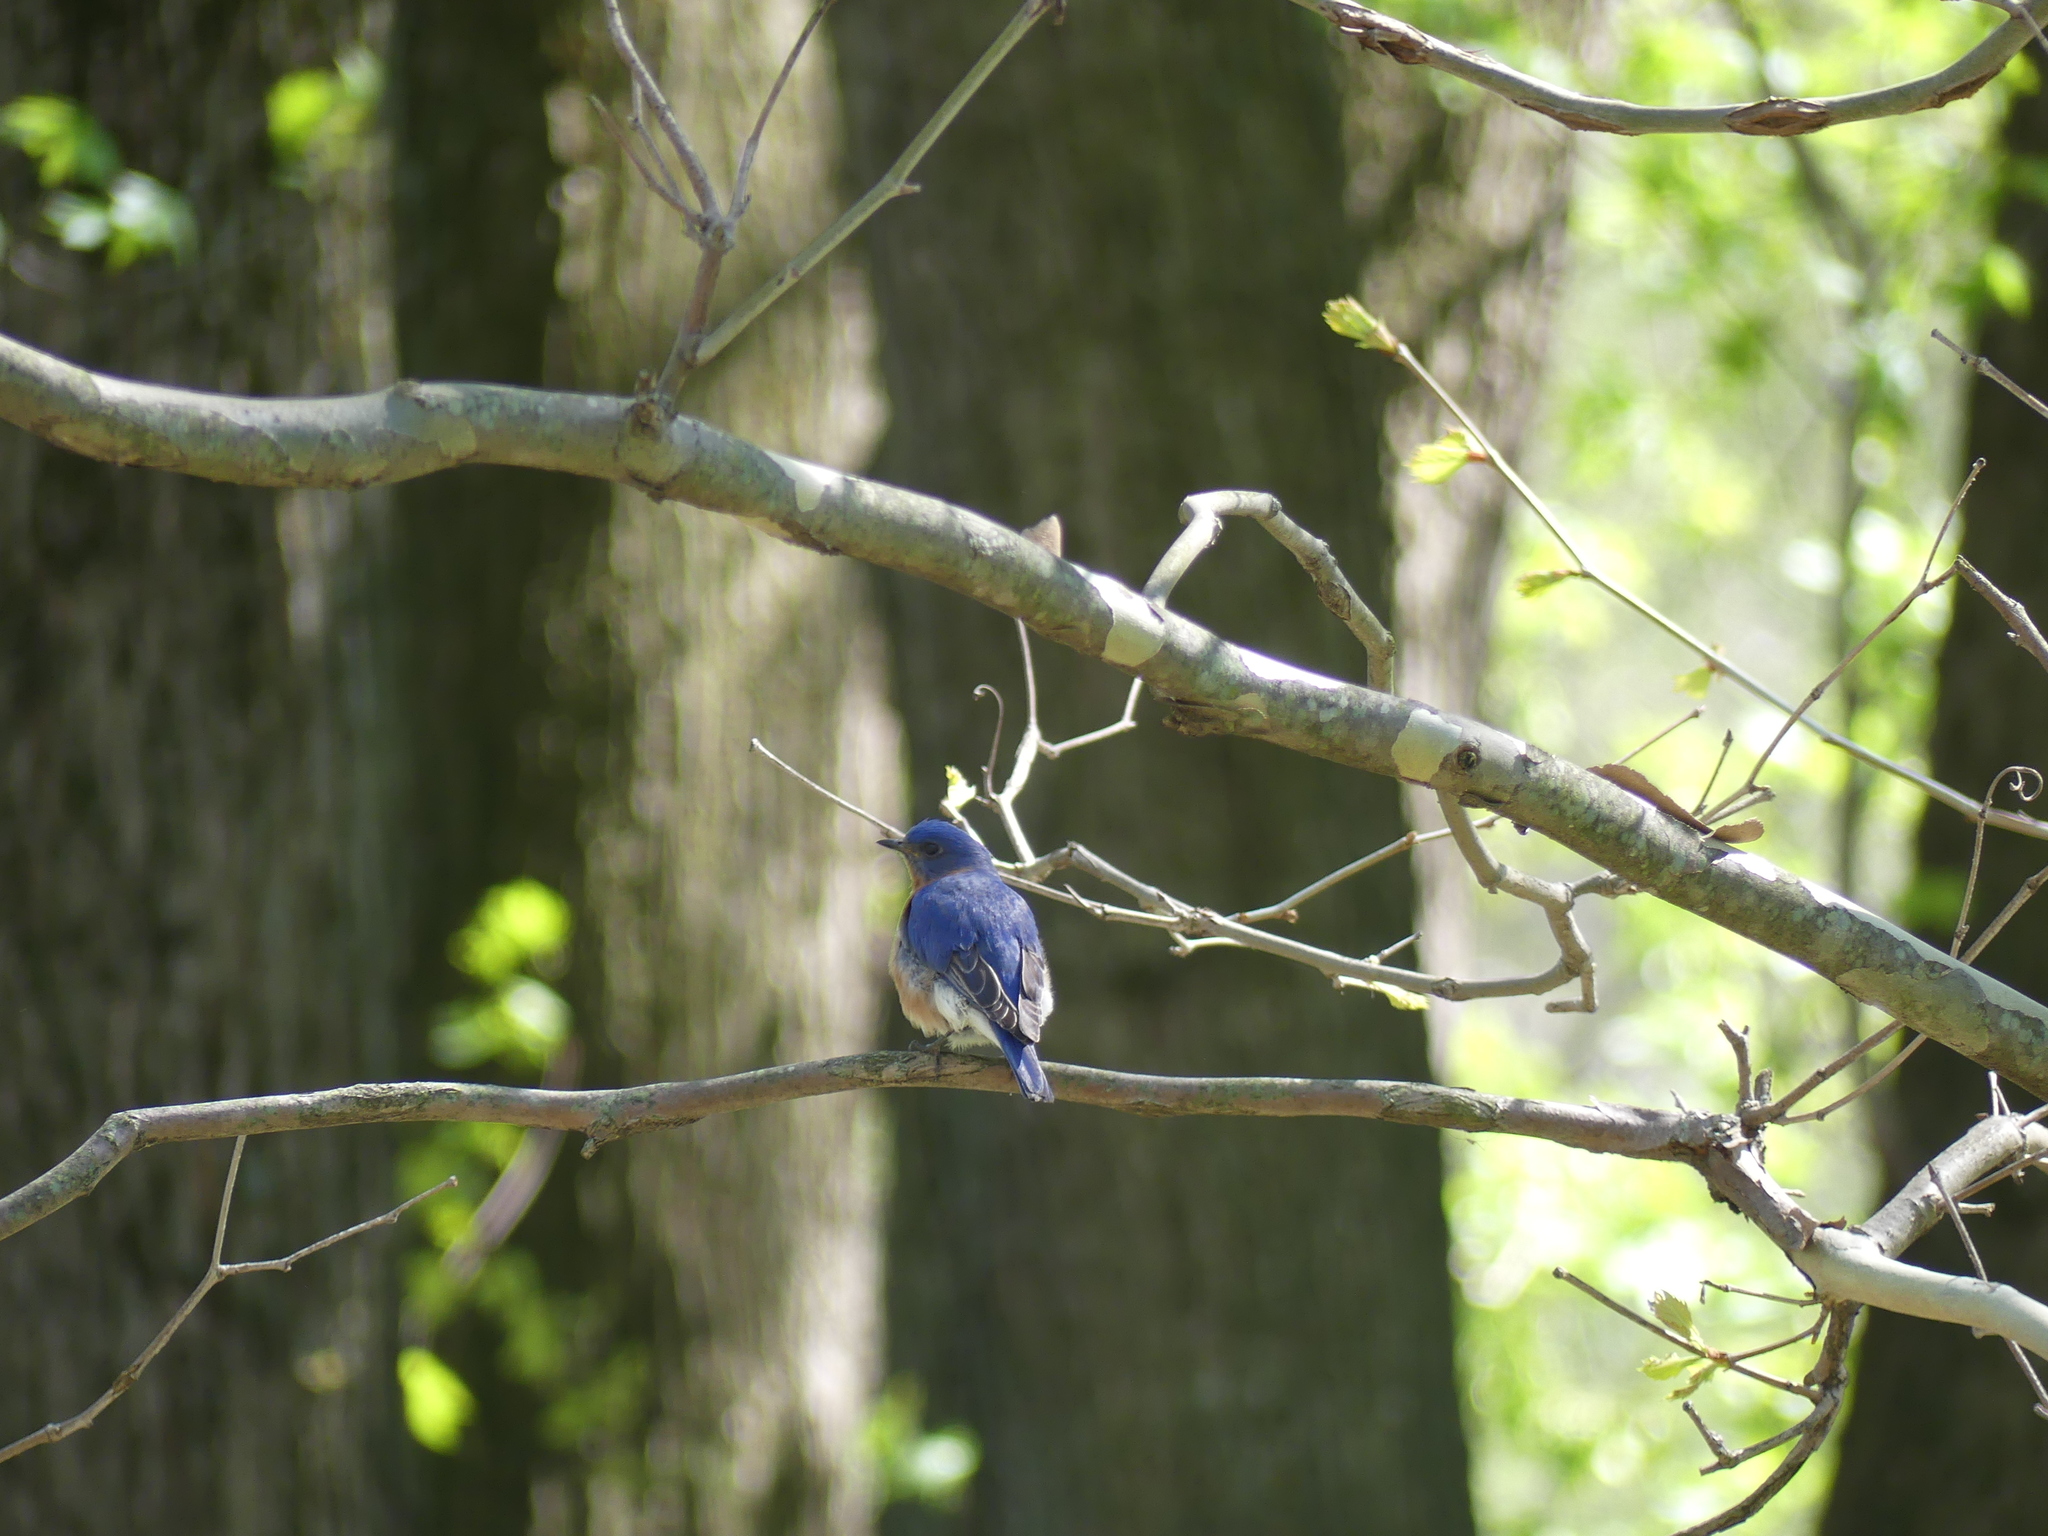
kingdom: Animalia
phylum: Chordata
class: Aves
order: Passeriformes
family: Turdidae
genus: Sialia
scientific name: Sialia sialis
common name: Eastern bluebird
